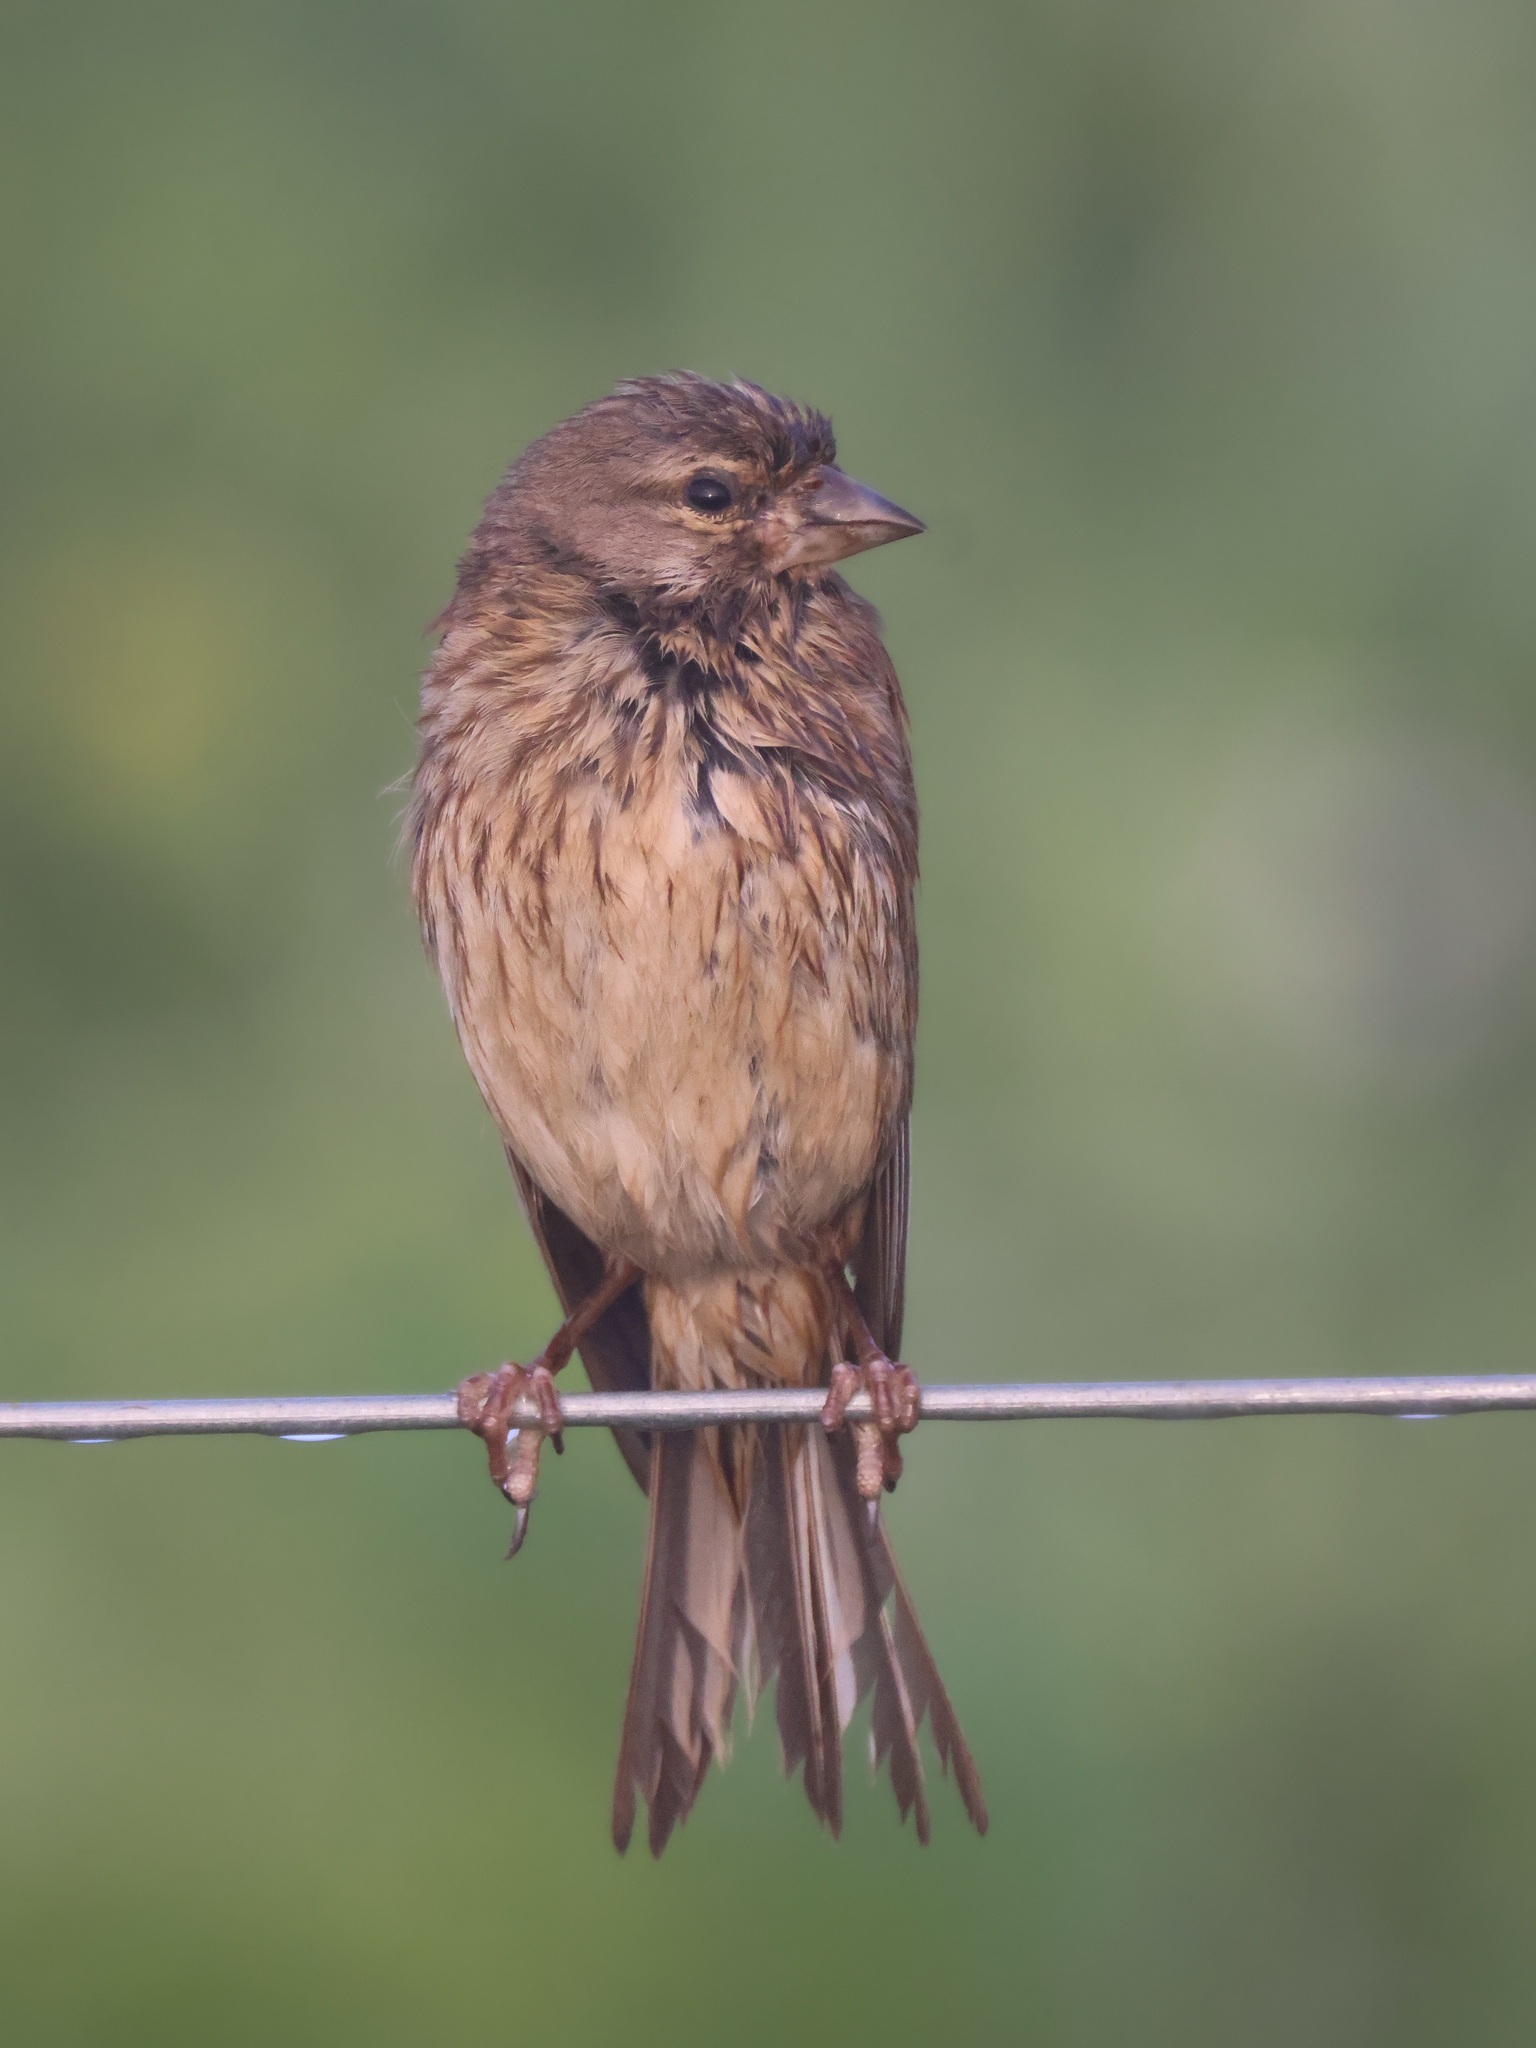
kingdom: Animalia
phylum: Chordata
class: Aves
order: Passeriformes
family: Fringillidae
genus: Linaria
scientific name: Linaria cannabina
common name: Common linnet
